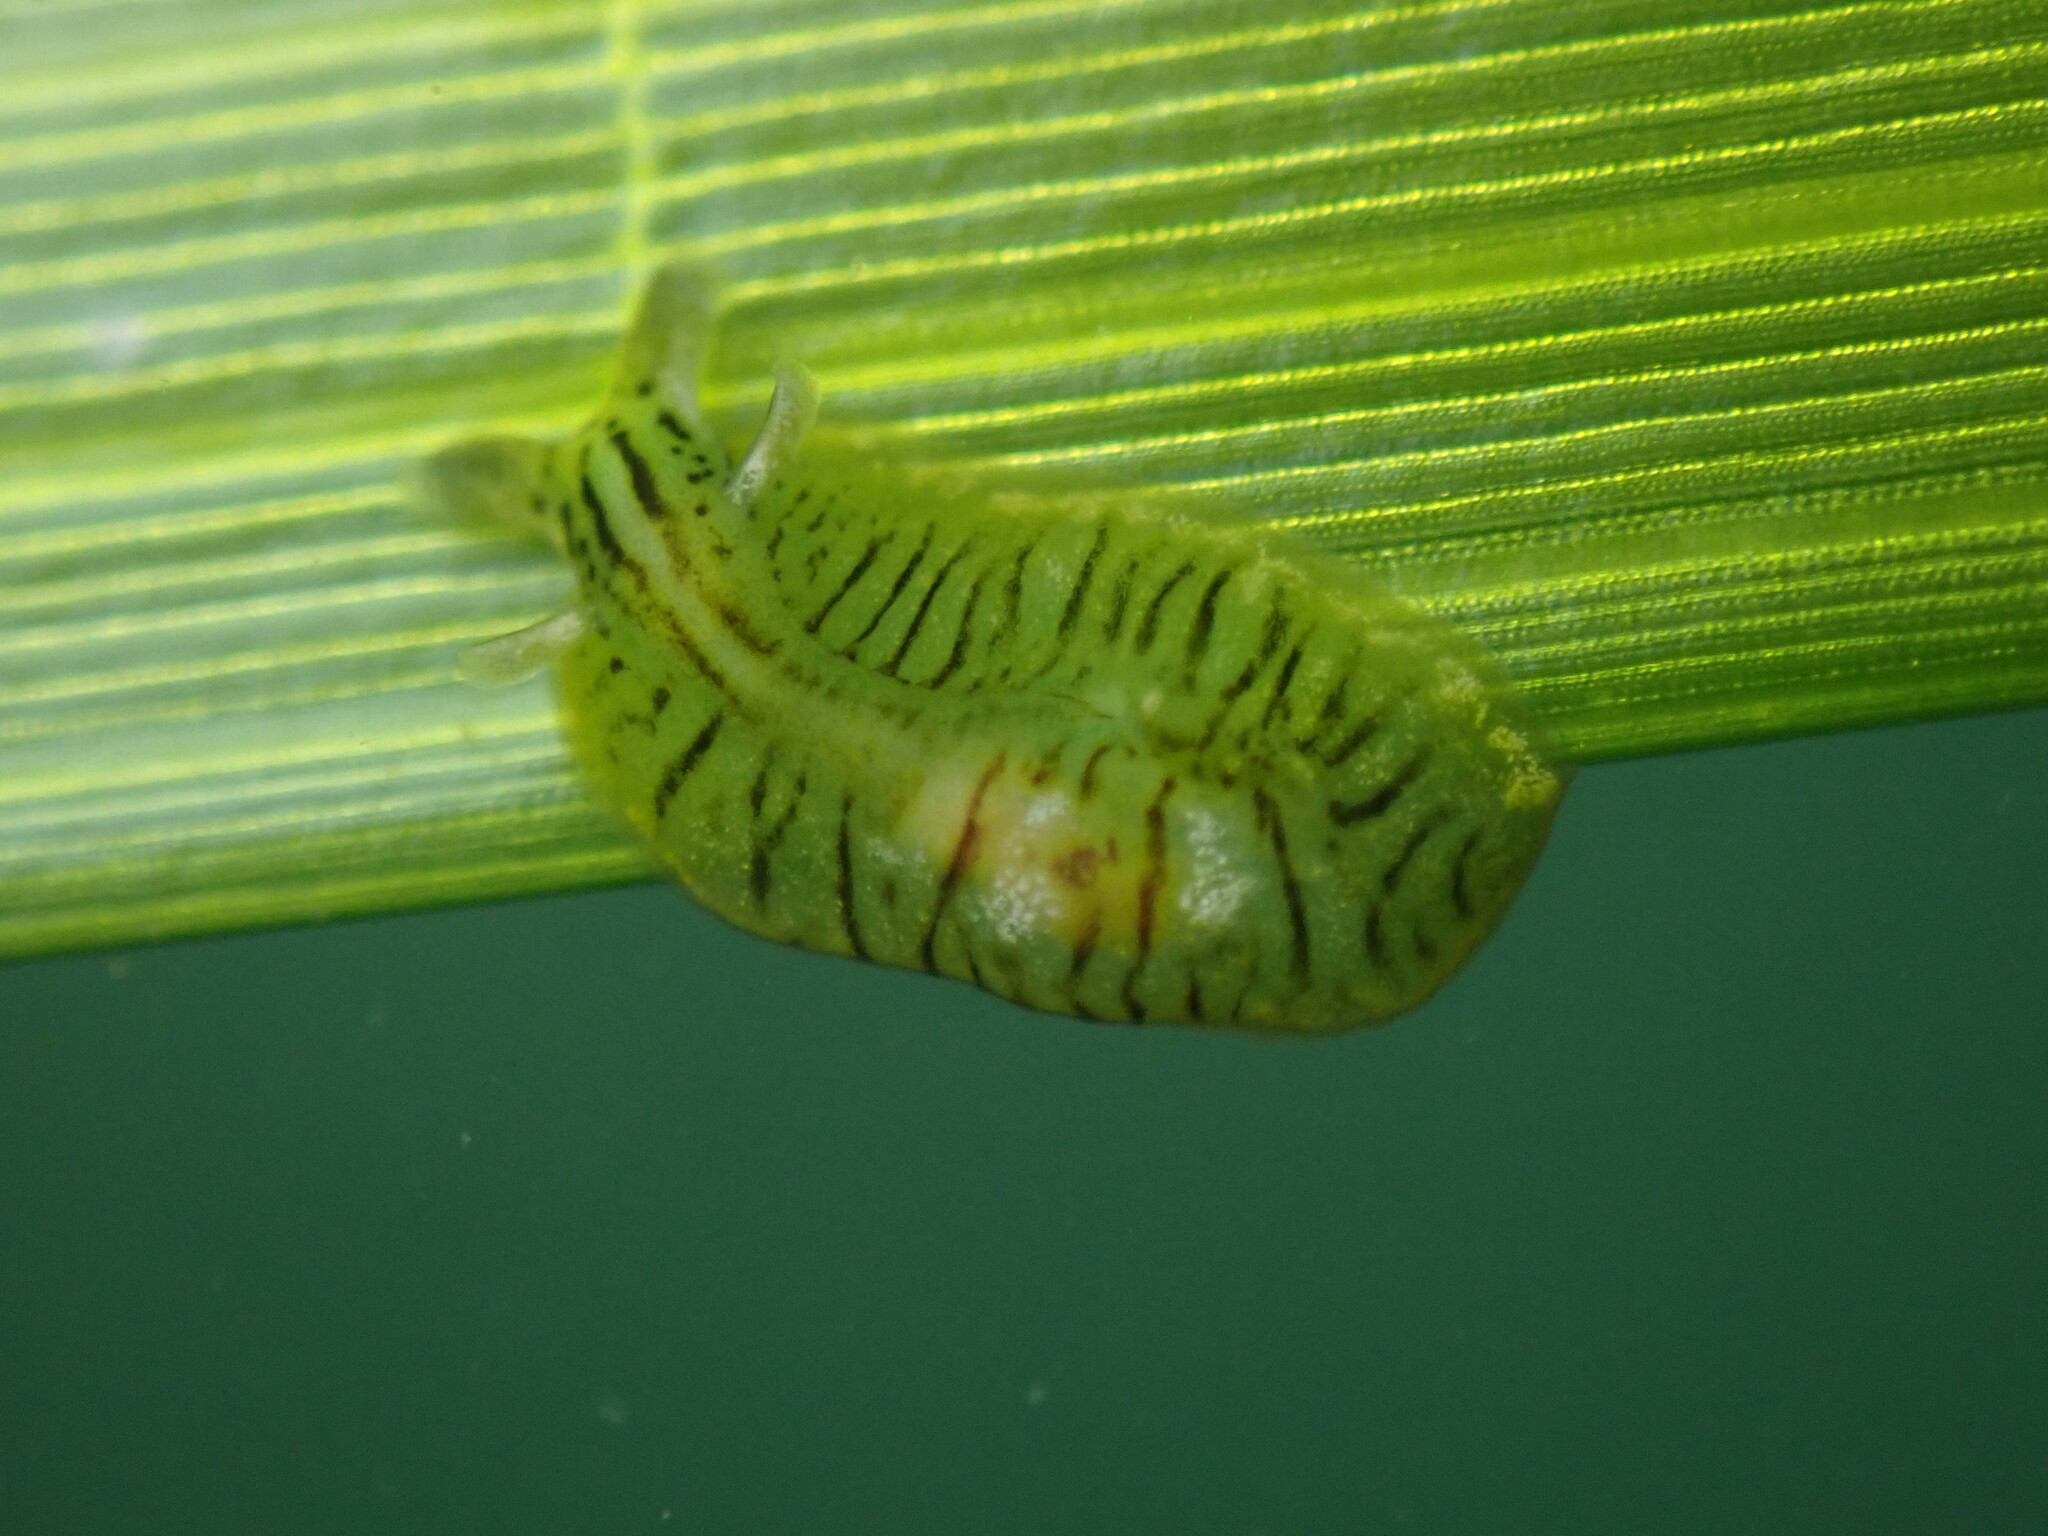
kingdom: Animalia
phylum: Mollusca
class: Gastropoda
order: Aplysiida
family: Aplysiidae
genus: Phyllaplysia
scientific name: Phyllaplysia taylori
